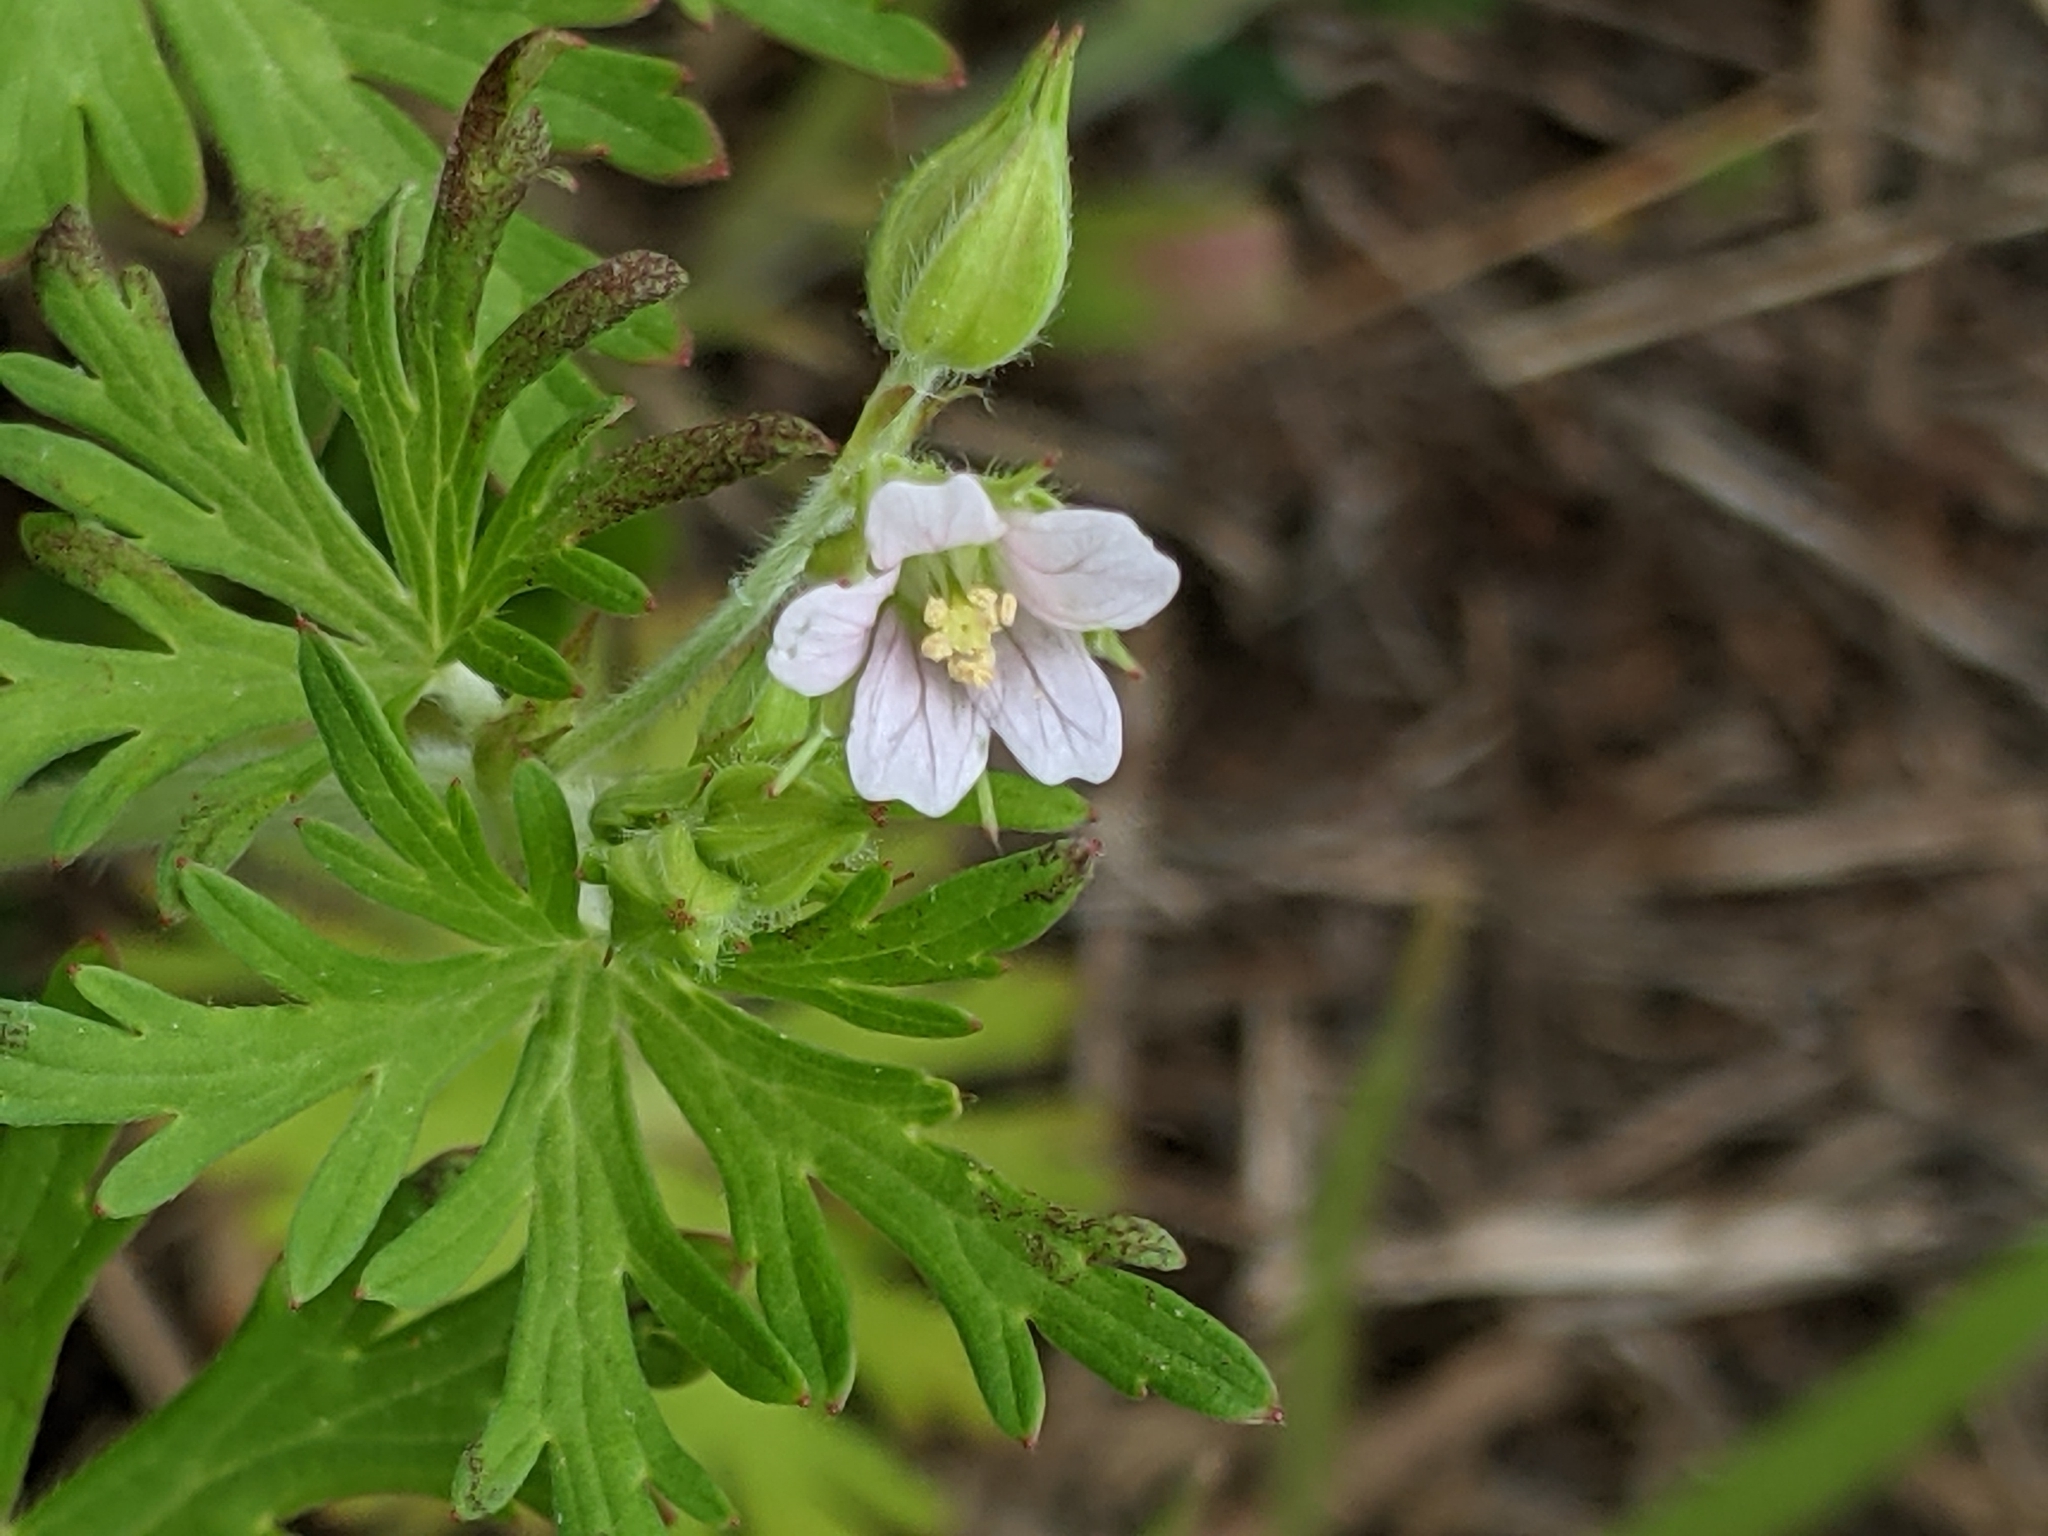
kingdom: Plantae
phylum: Tracheophyta
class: Magnoliopsida
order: Geraniales
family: Geraniaceae
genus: Geranium
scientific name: Geranium carolinianum
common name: Carolina crane's-bill
